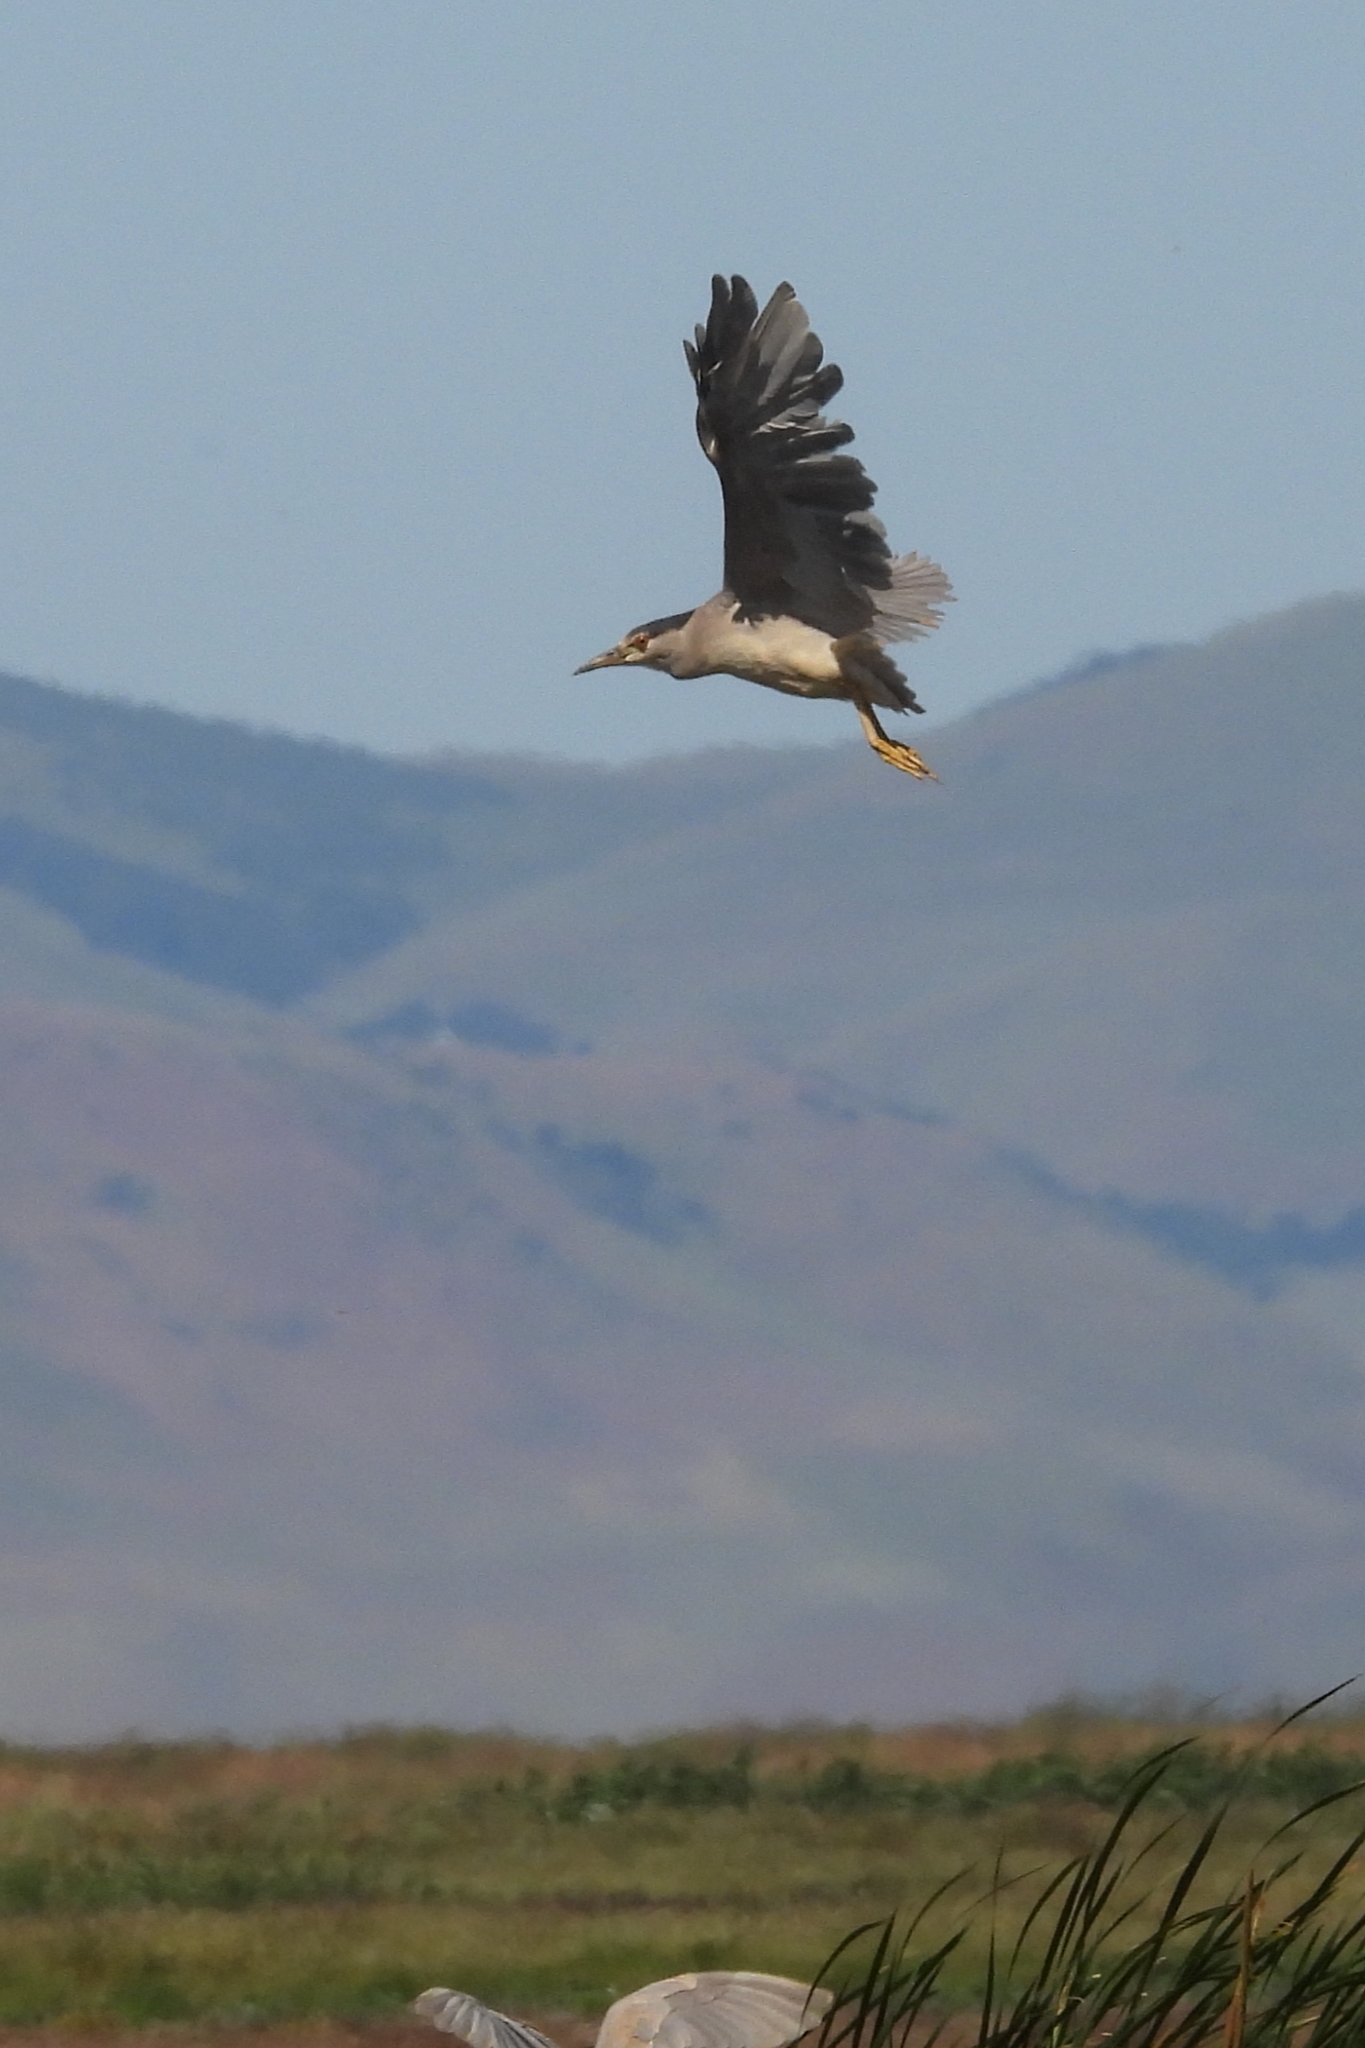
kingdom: Animalia
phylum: Chordata
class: Aves
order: Pelecaniformes
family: Ardeidae
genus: Nycticorax
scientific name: Nycticorax nycticorax
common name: Black-crowned night heron
